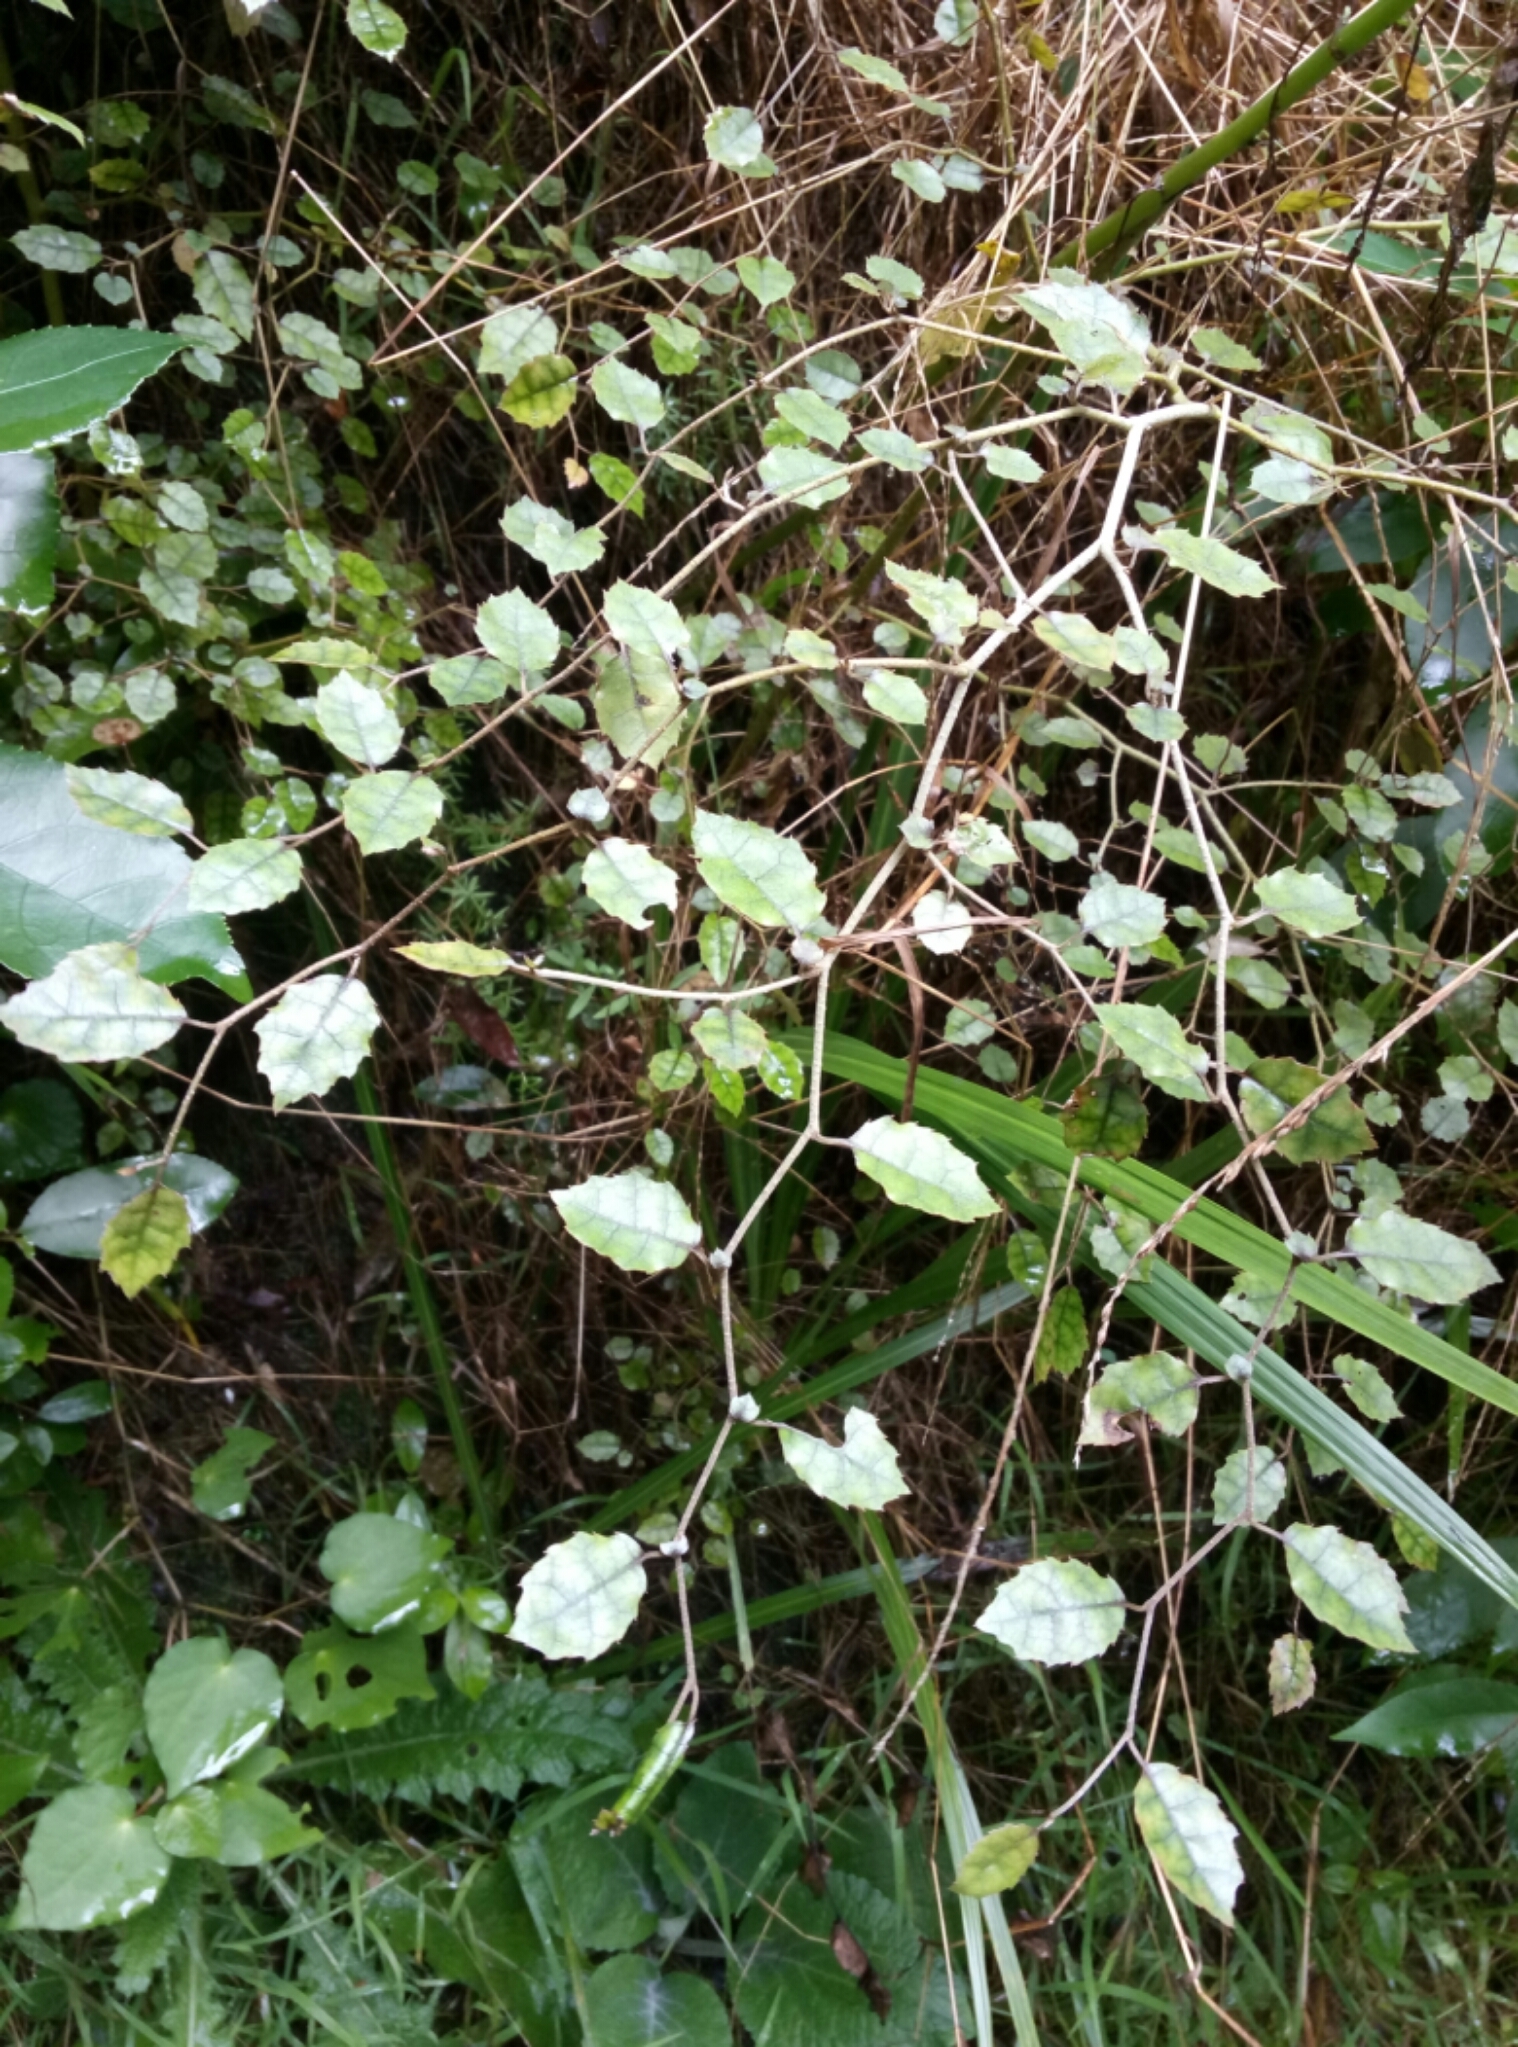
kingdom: Plantae
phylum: Tracheophyta
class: Magnoliopsida
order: Asterales
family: Rousseaceae
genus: Carpodetus
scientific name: Carpodetus serratus
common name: White mapau
